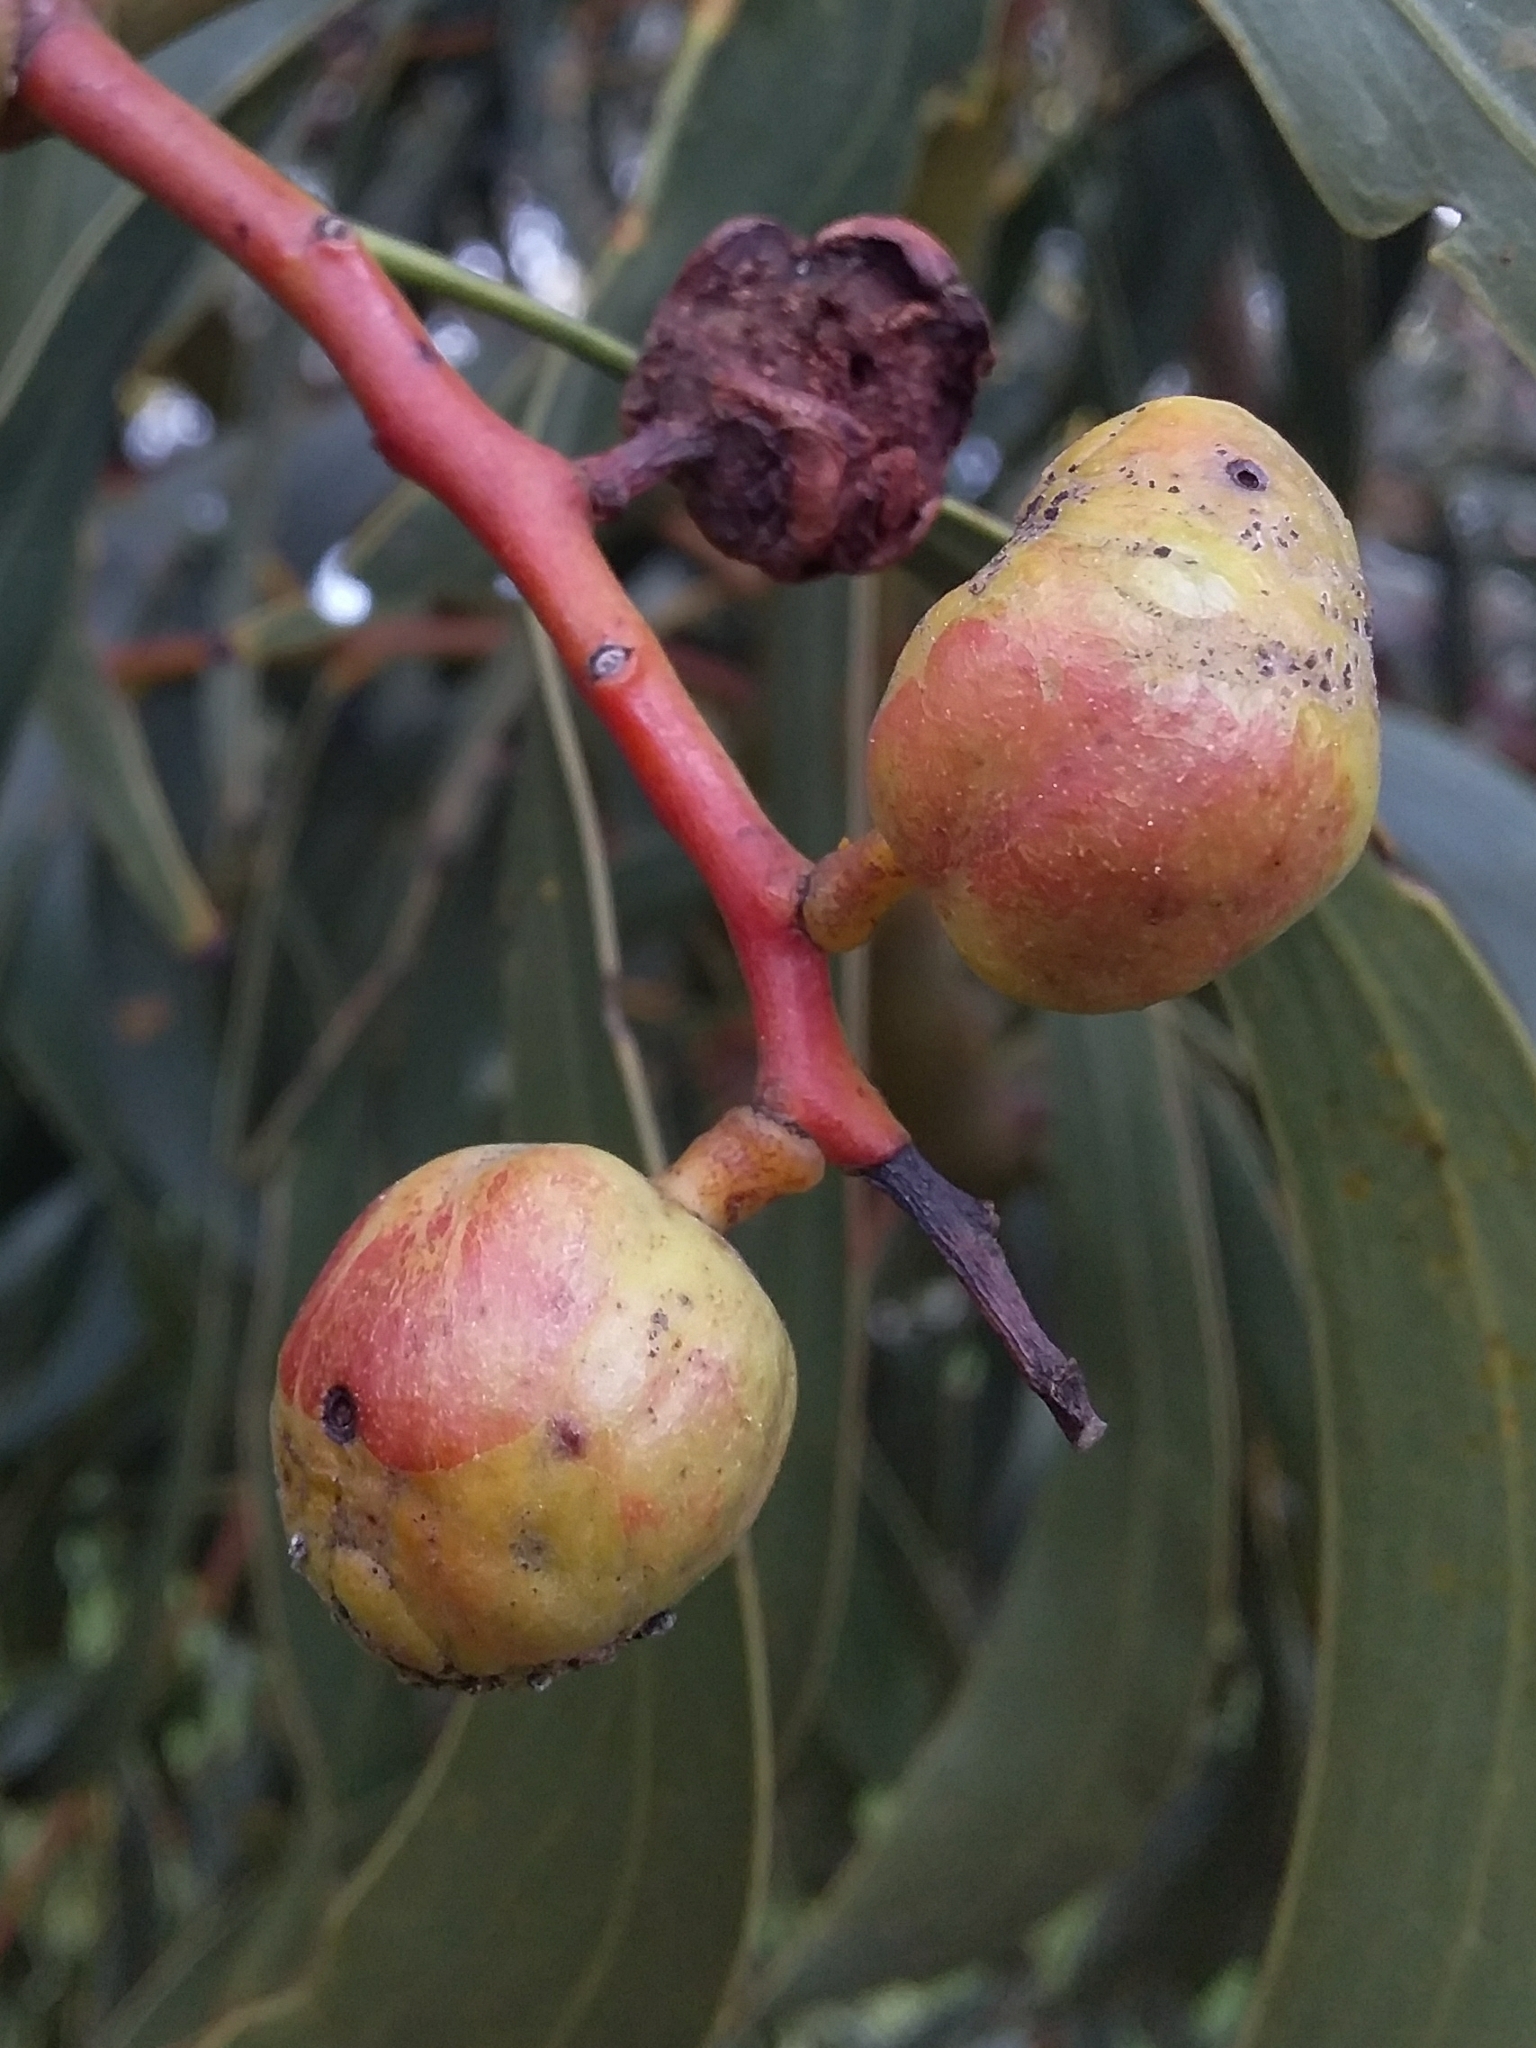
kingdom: Animalia
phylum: Arthropoda
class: Insecta
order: Hymenoptera
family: Pteromalidae
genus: Trichilogaster
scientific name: Trichilogaster signiventris
